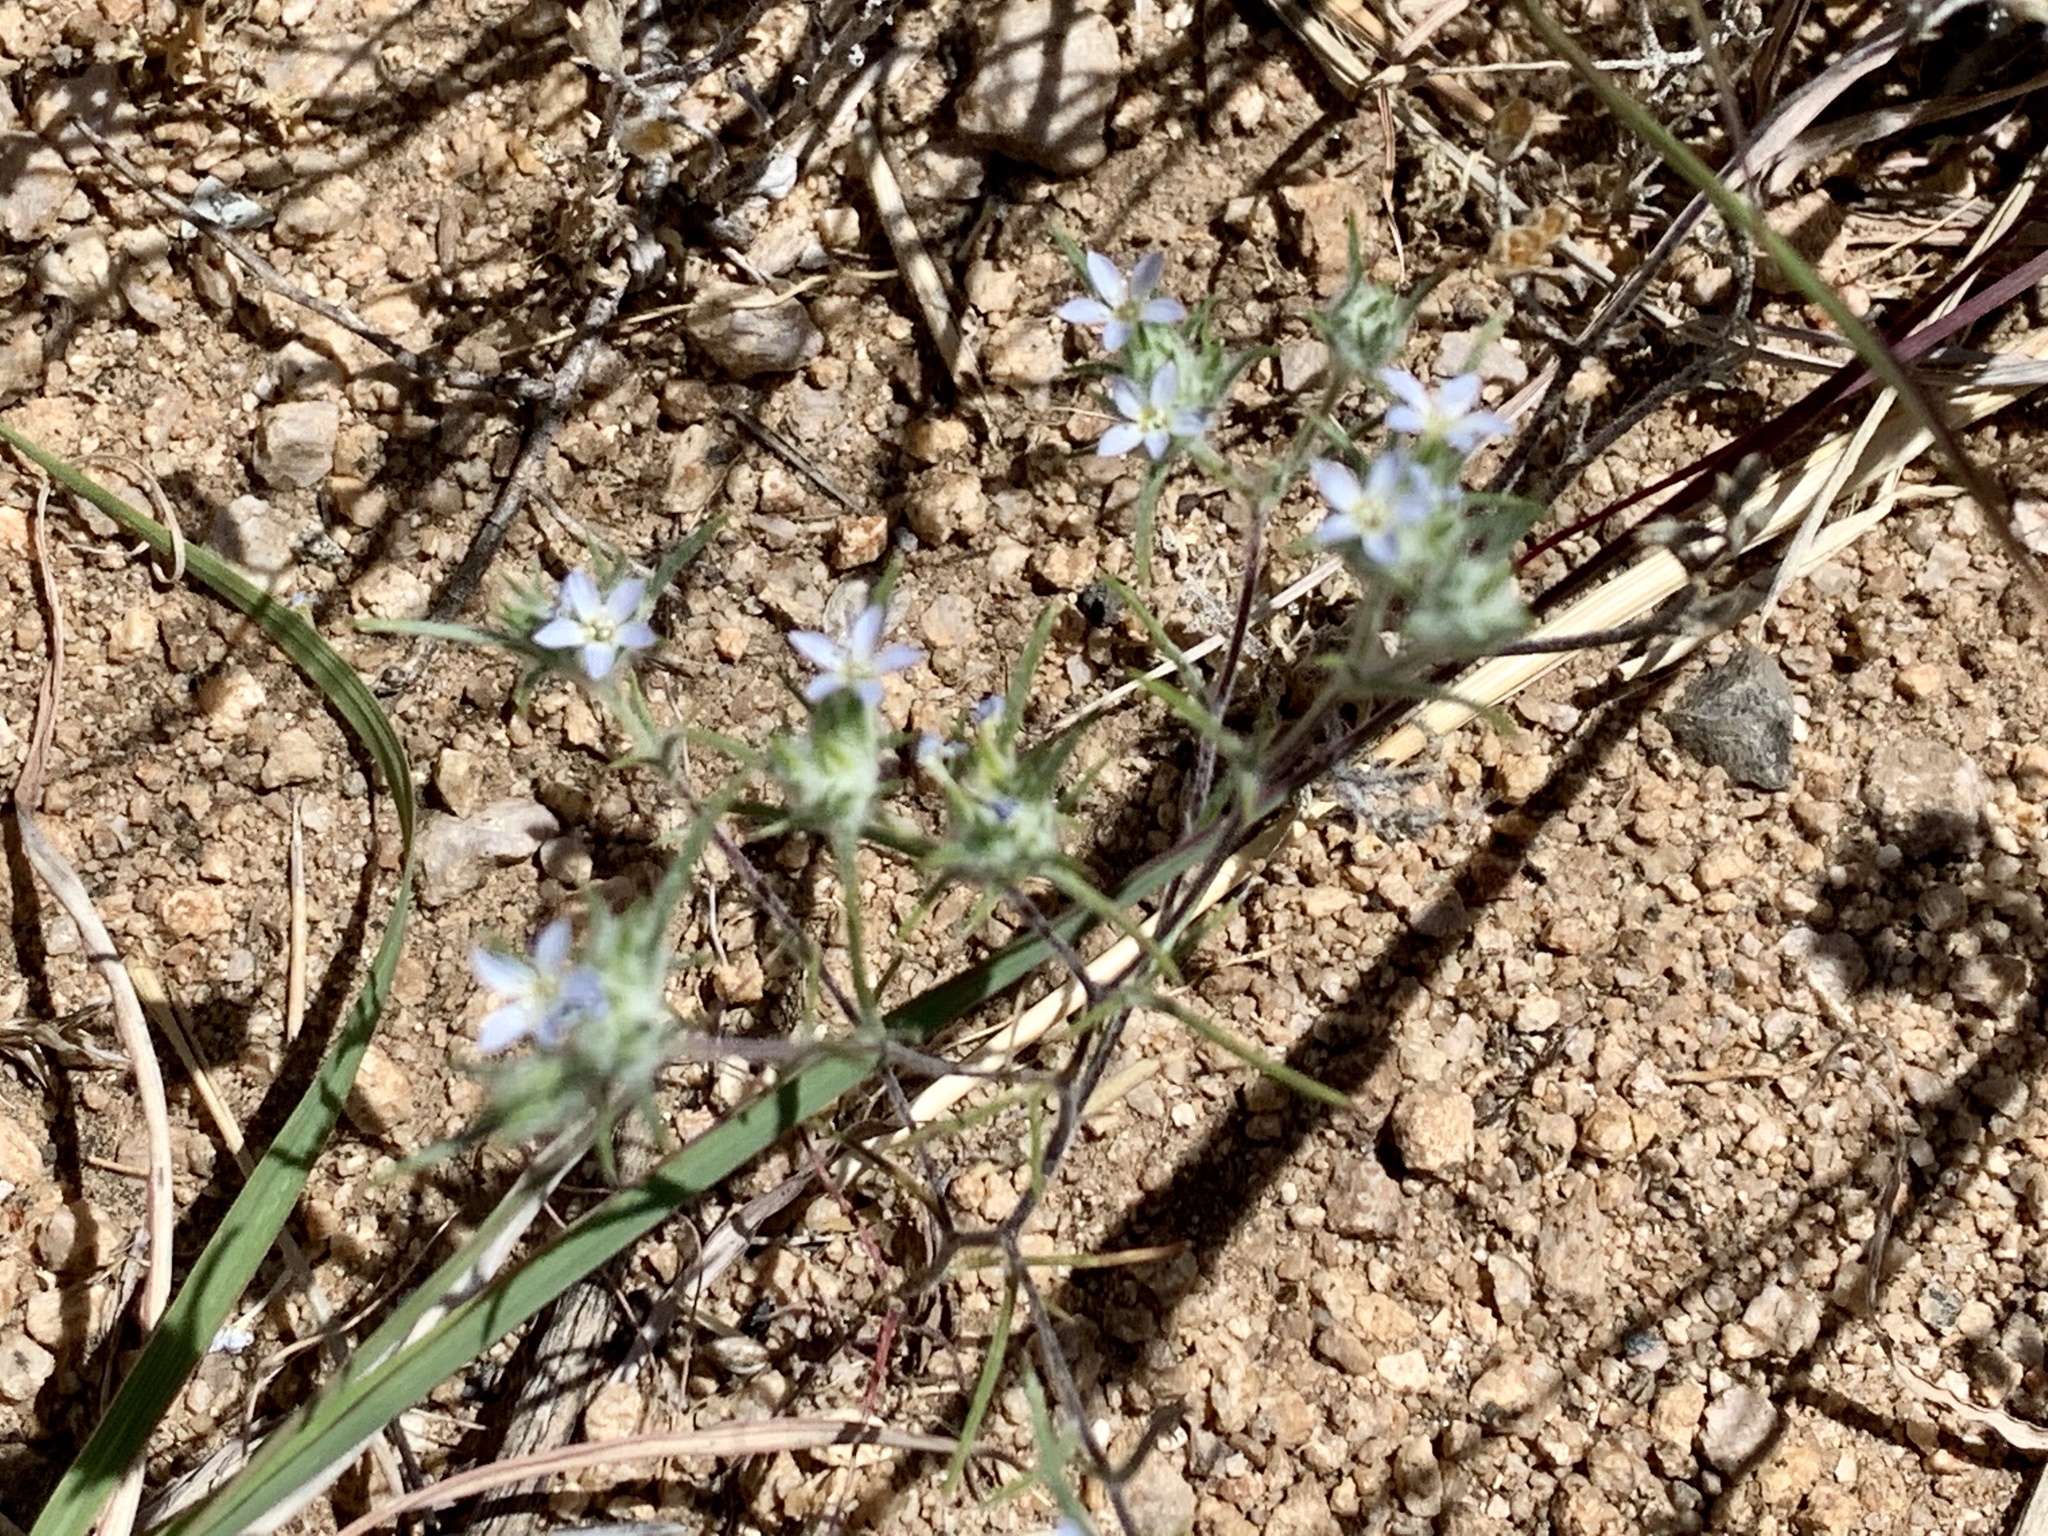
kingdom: Plantae
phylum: Tracheophyta
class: Magnoliopsida
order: Ericales
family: Polemoniaceae
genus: Eriastrum
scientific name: Eriastrum diffusum
